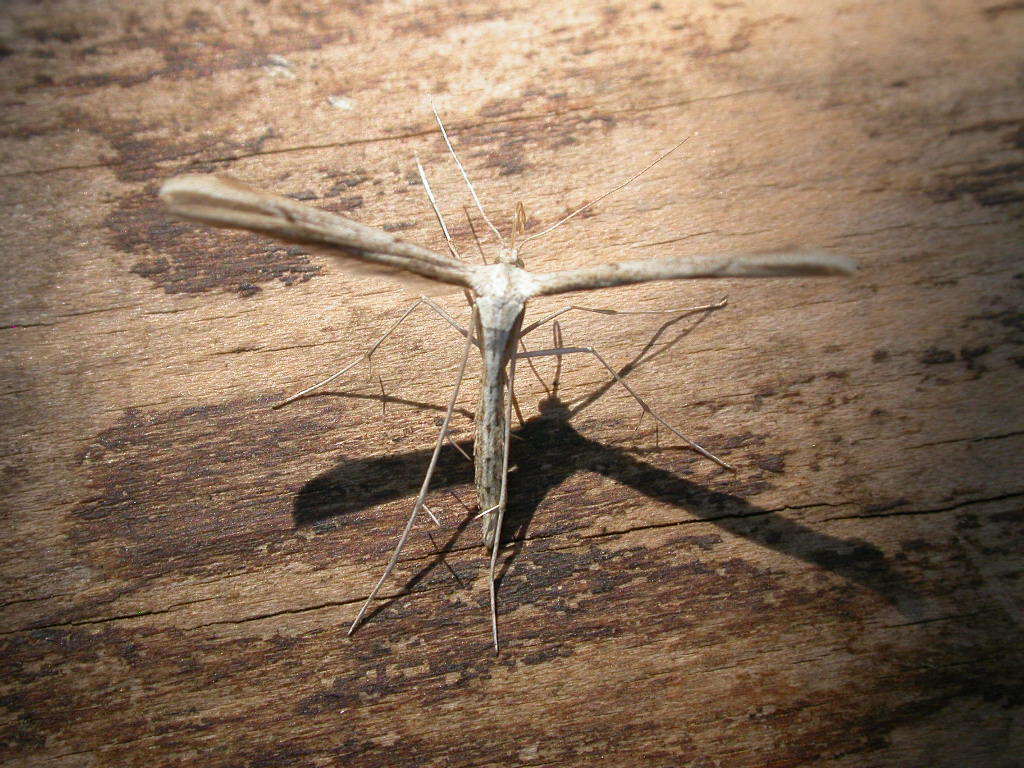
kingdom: Animalia
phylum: Arthropoda
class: Insecta
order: Lepidoptera
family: Pterophoridae
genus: Emmelina
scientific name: Emmelina monodactyla
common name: Common plume
